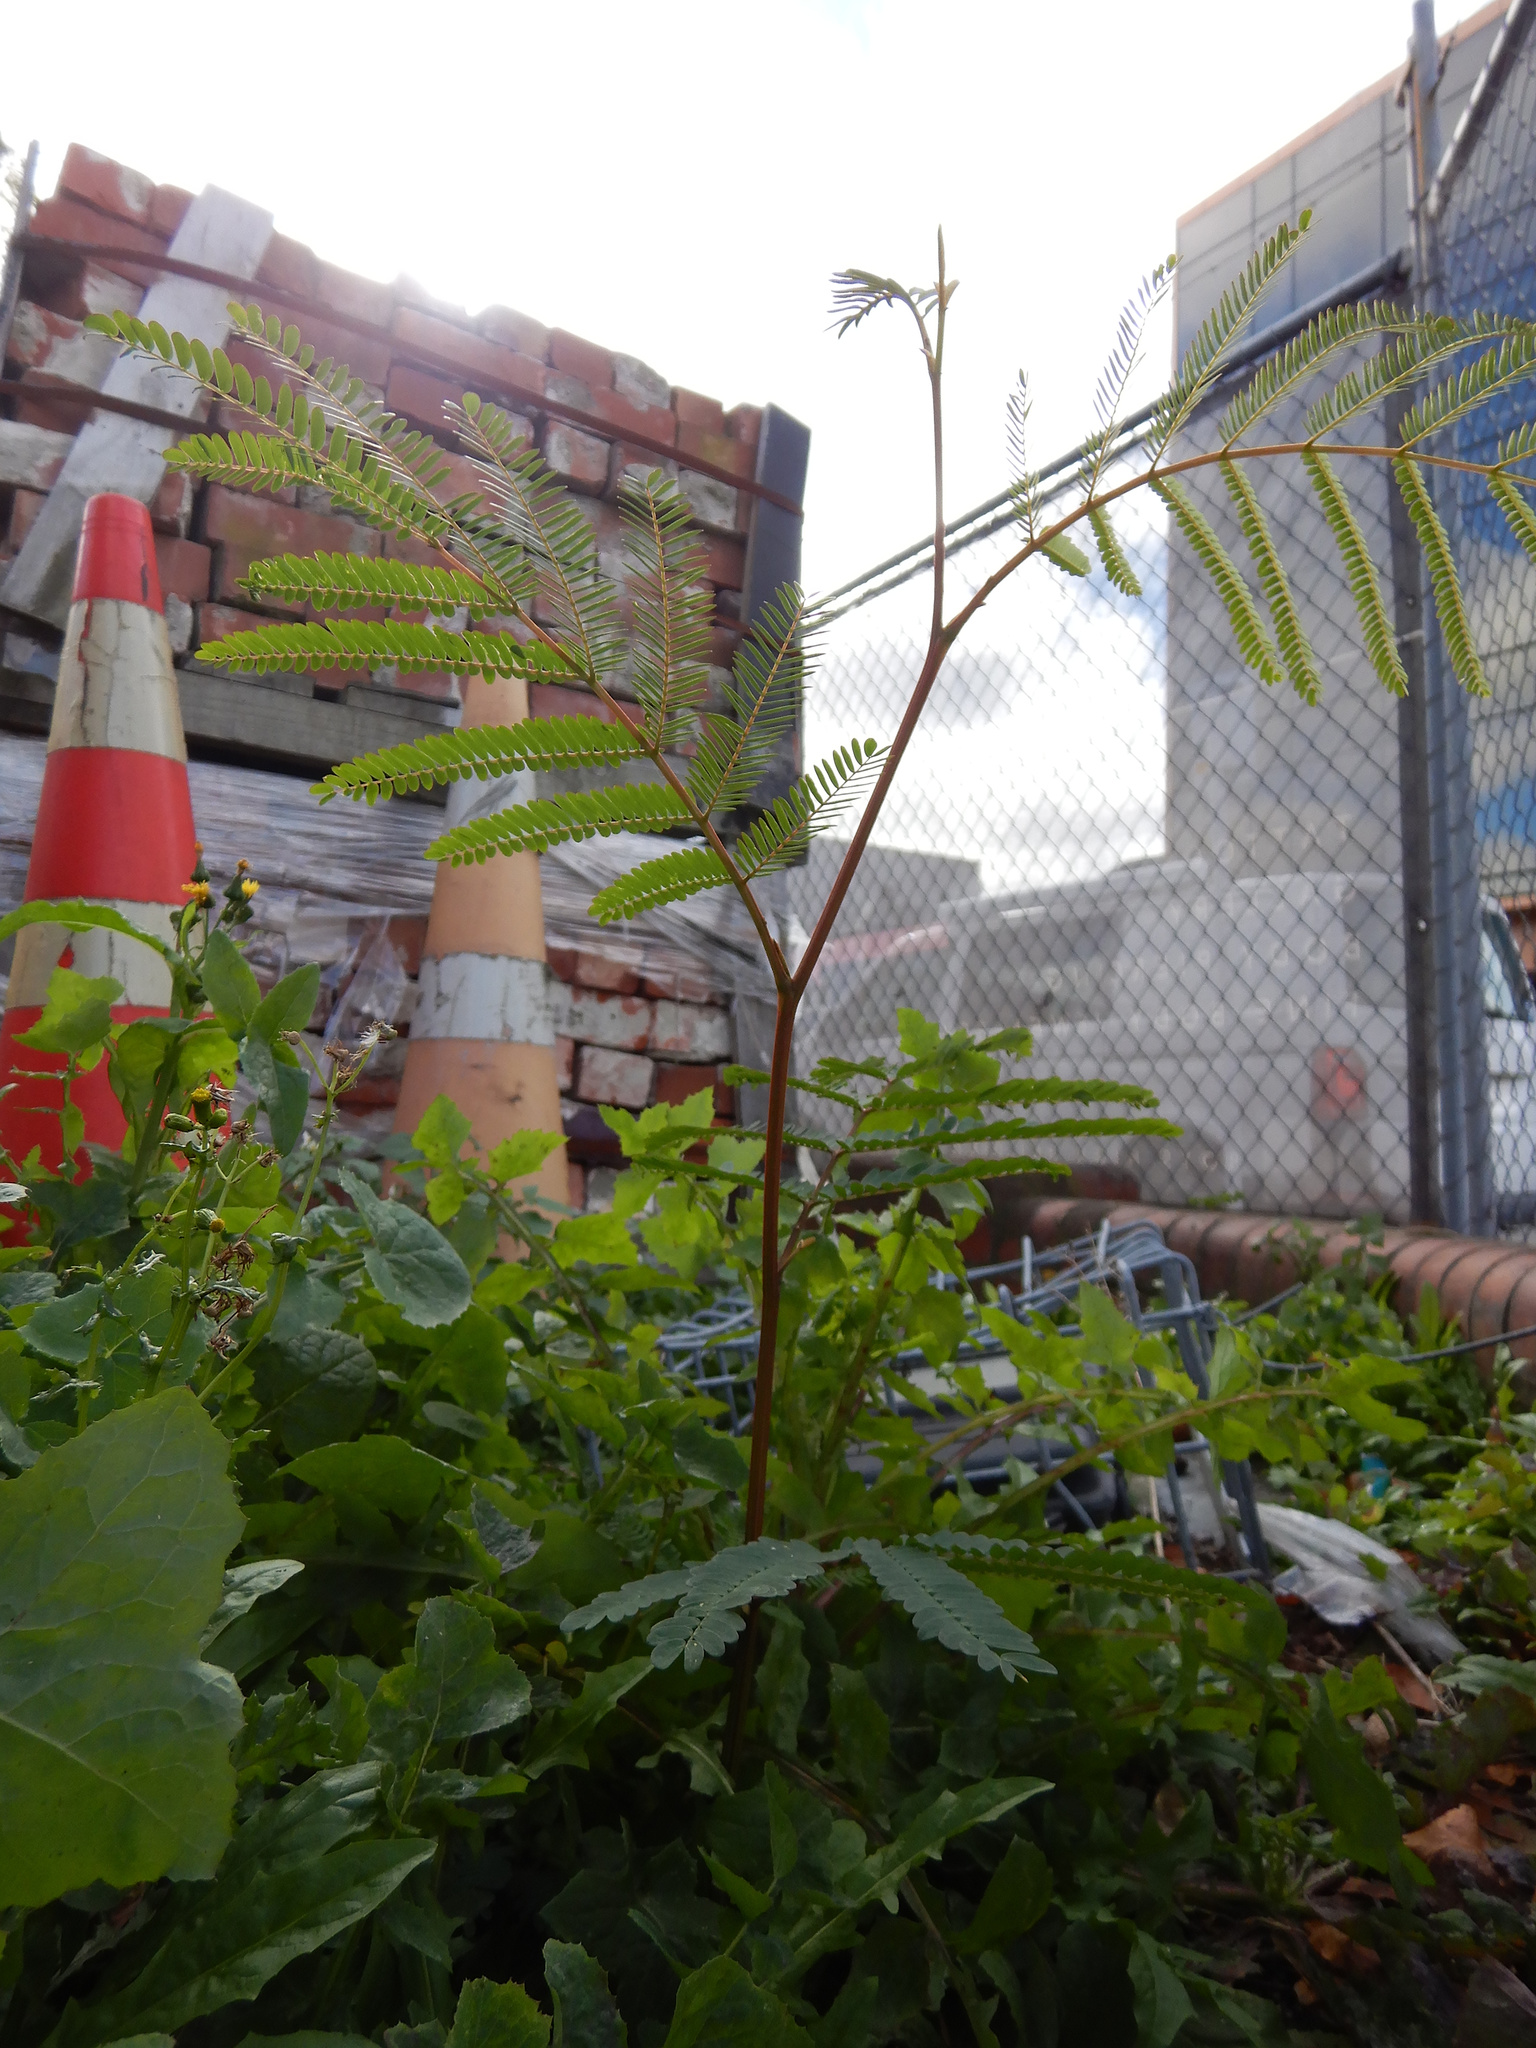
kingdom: Plantae
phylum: Tracheophyta
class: Magnoliopsida
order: Fabales
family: Fabaceae
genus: Paraserianthes
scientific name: Paraserianthes lophantha
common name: Plume albizia
